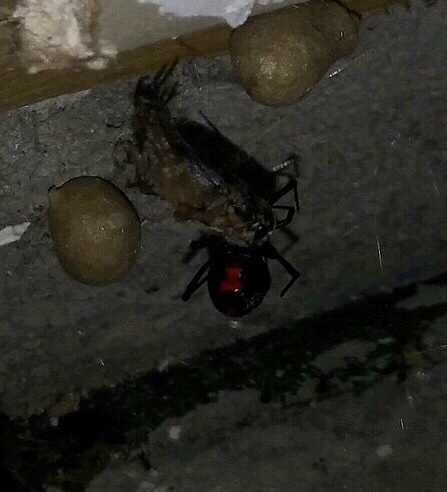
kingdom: Animalia
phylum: Arthropoda
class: Arachnida
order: Araneae
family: Theridiidae
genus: Latrodectus
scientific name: Latrodectus mactans
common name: Cobweb spiders
